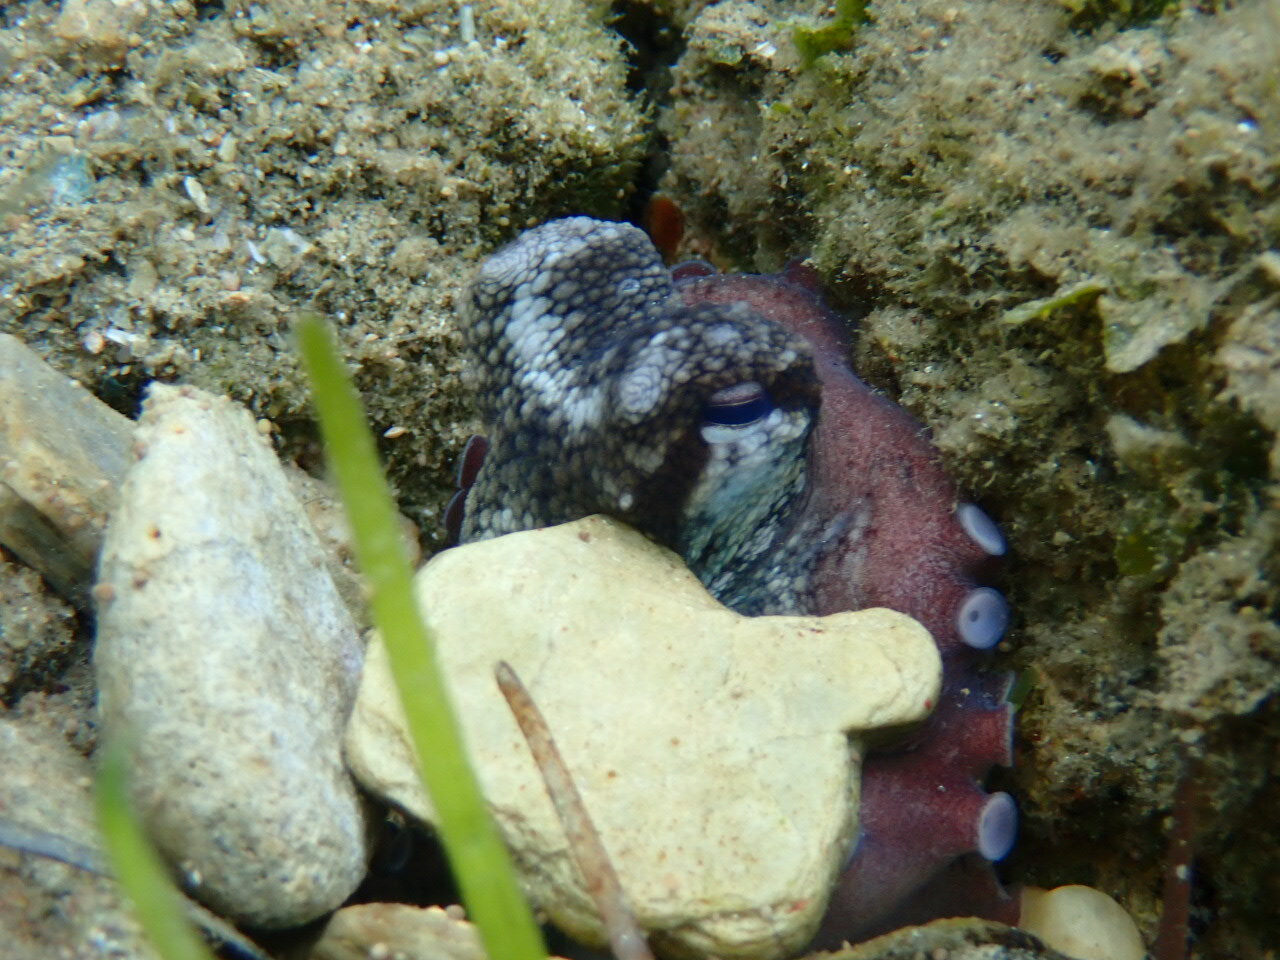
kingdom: Animalia
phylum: Mollusca
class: Cephalopoda
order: Octopoda
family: Octopodidae
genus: Octopus
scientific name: Octopus vulgaris
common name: Common octopus
